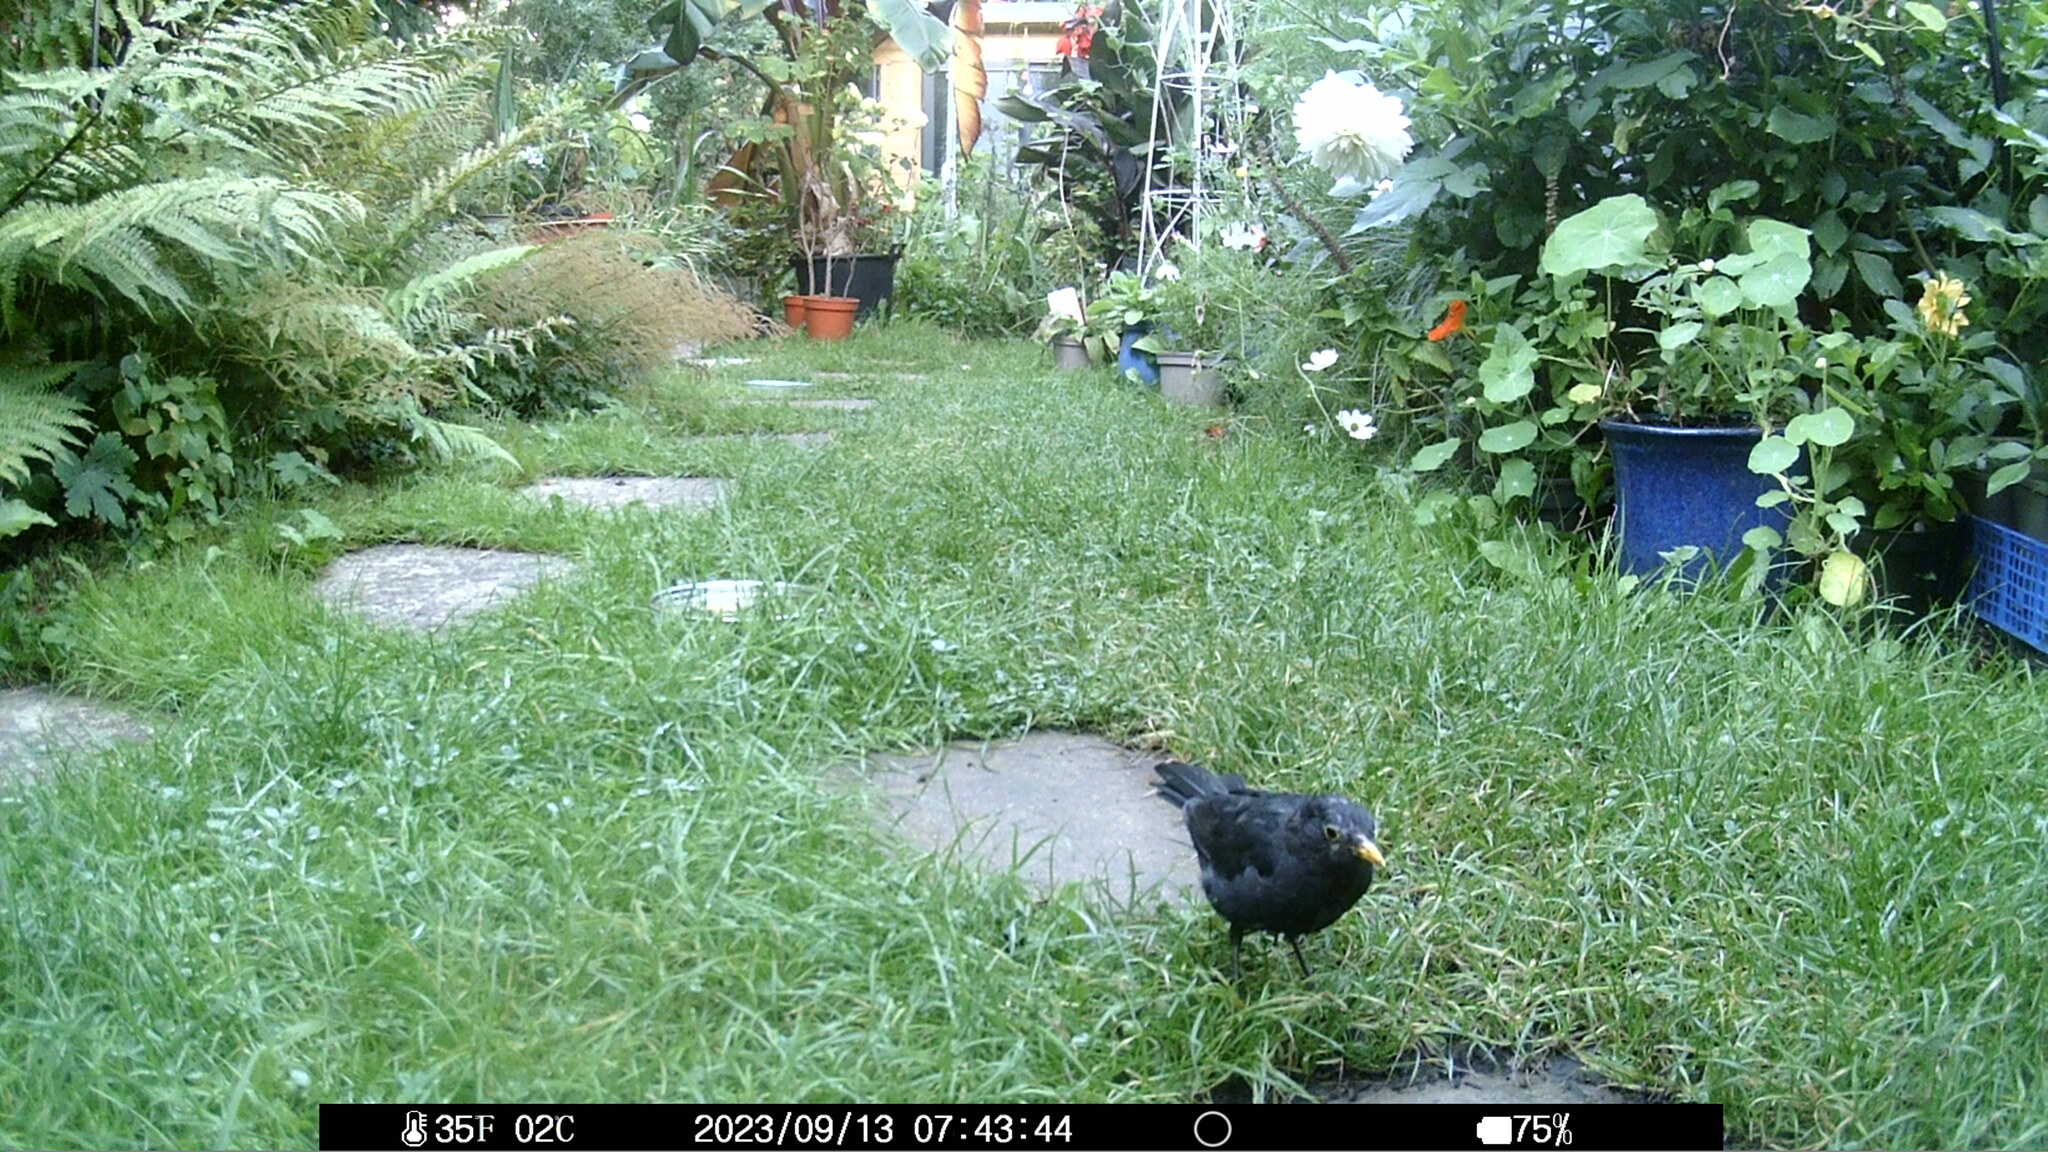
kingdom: Animalia
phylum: Chordata
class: Aves
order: Passeriformes
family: Turdidae
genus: Turdus
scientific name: Turdus merula
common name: Common blackbird
